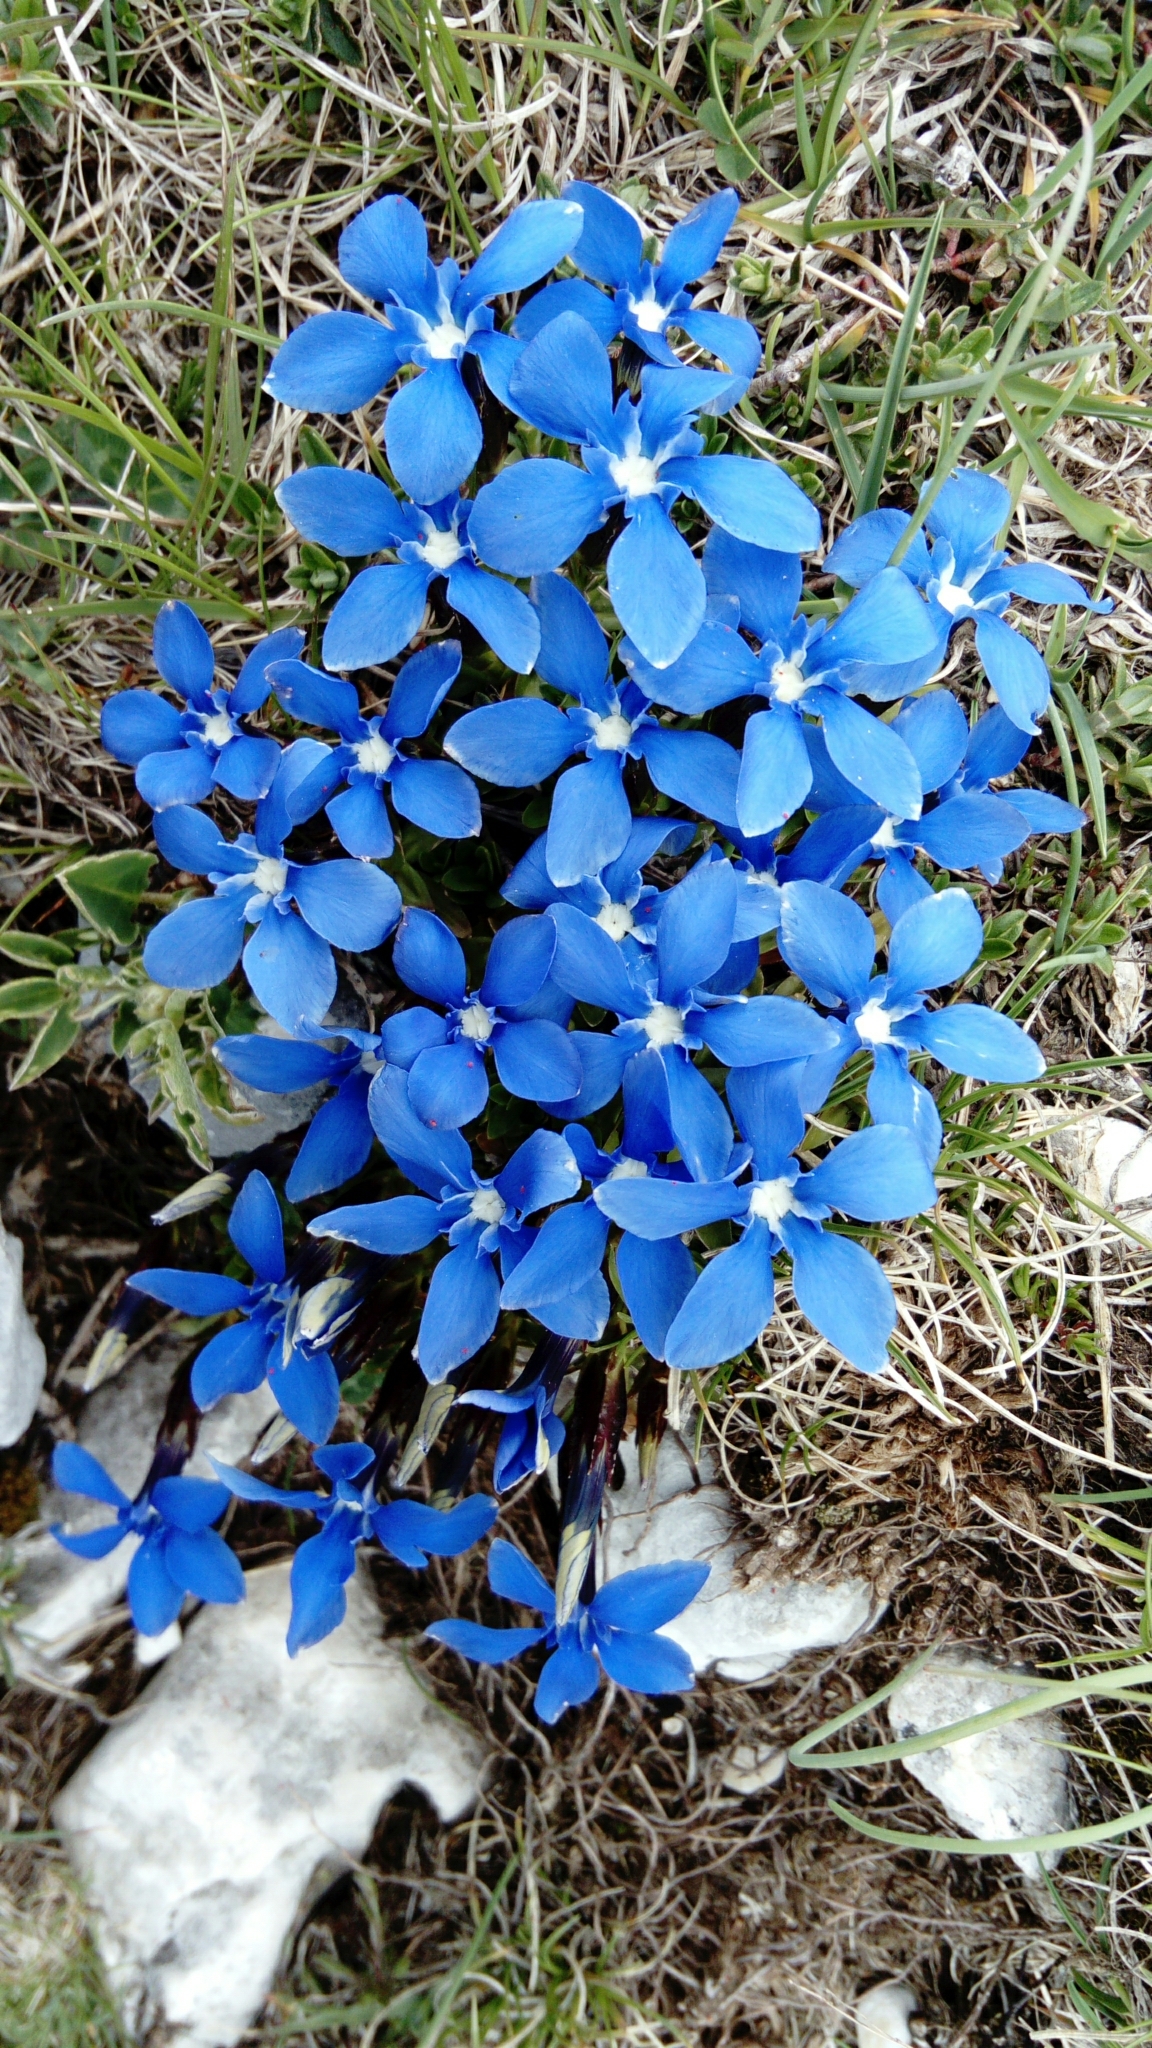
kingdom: Plantae
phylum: Tracheophyta
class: Magnoliopsida
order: Gentianales
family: Gentianaceae
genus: Gentiana
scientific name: Gentiana verna
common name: Spring gentian
